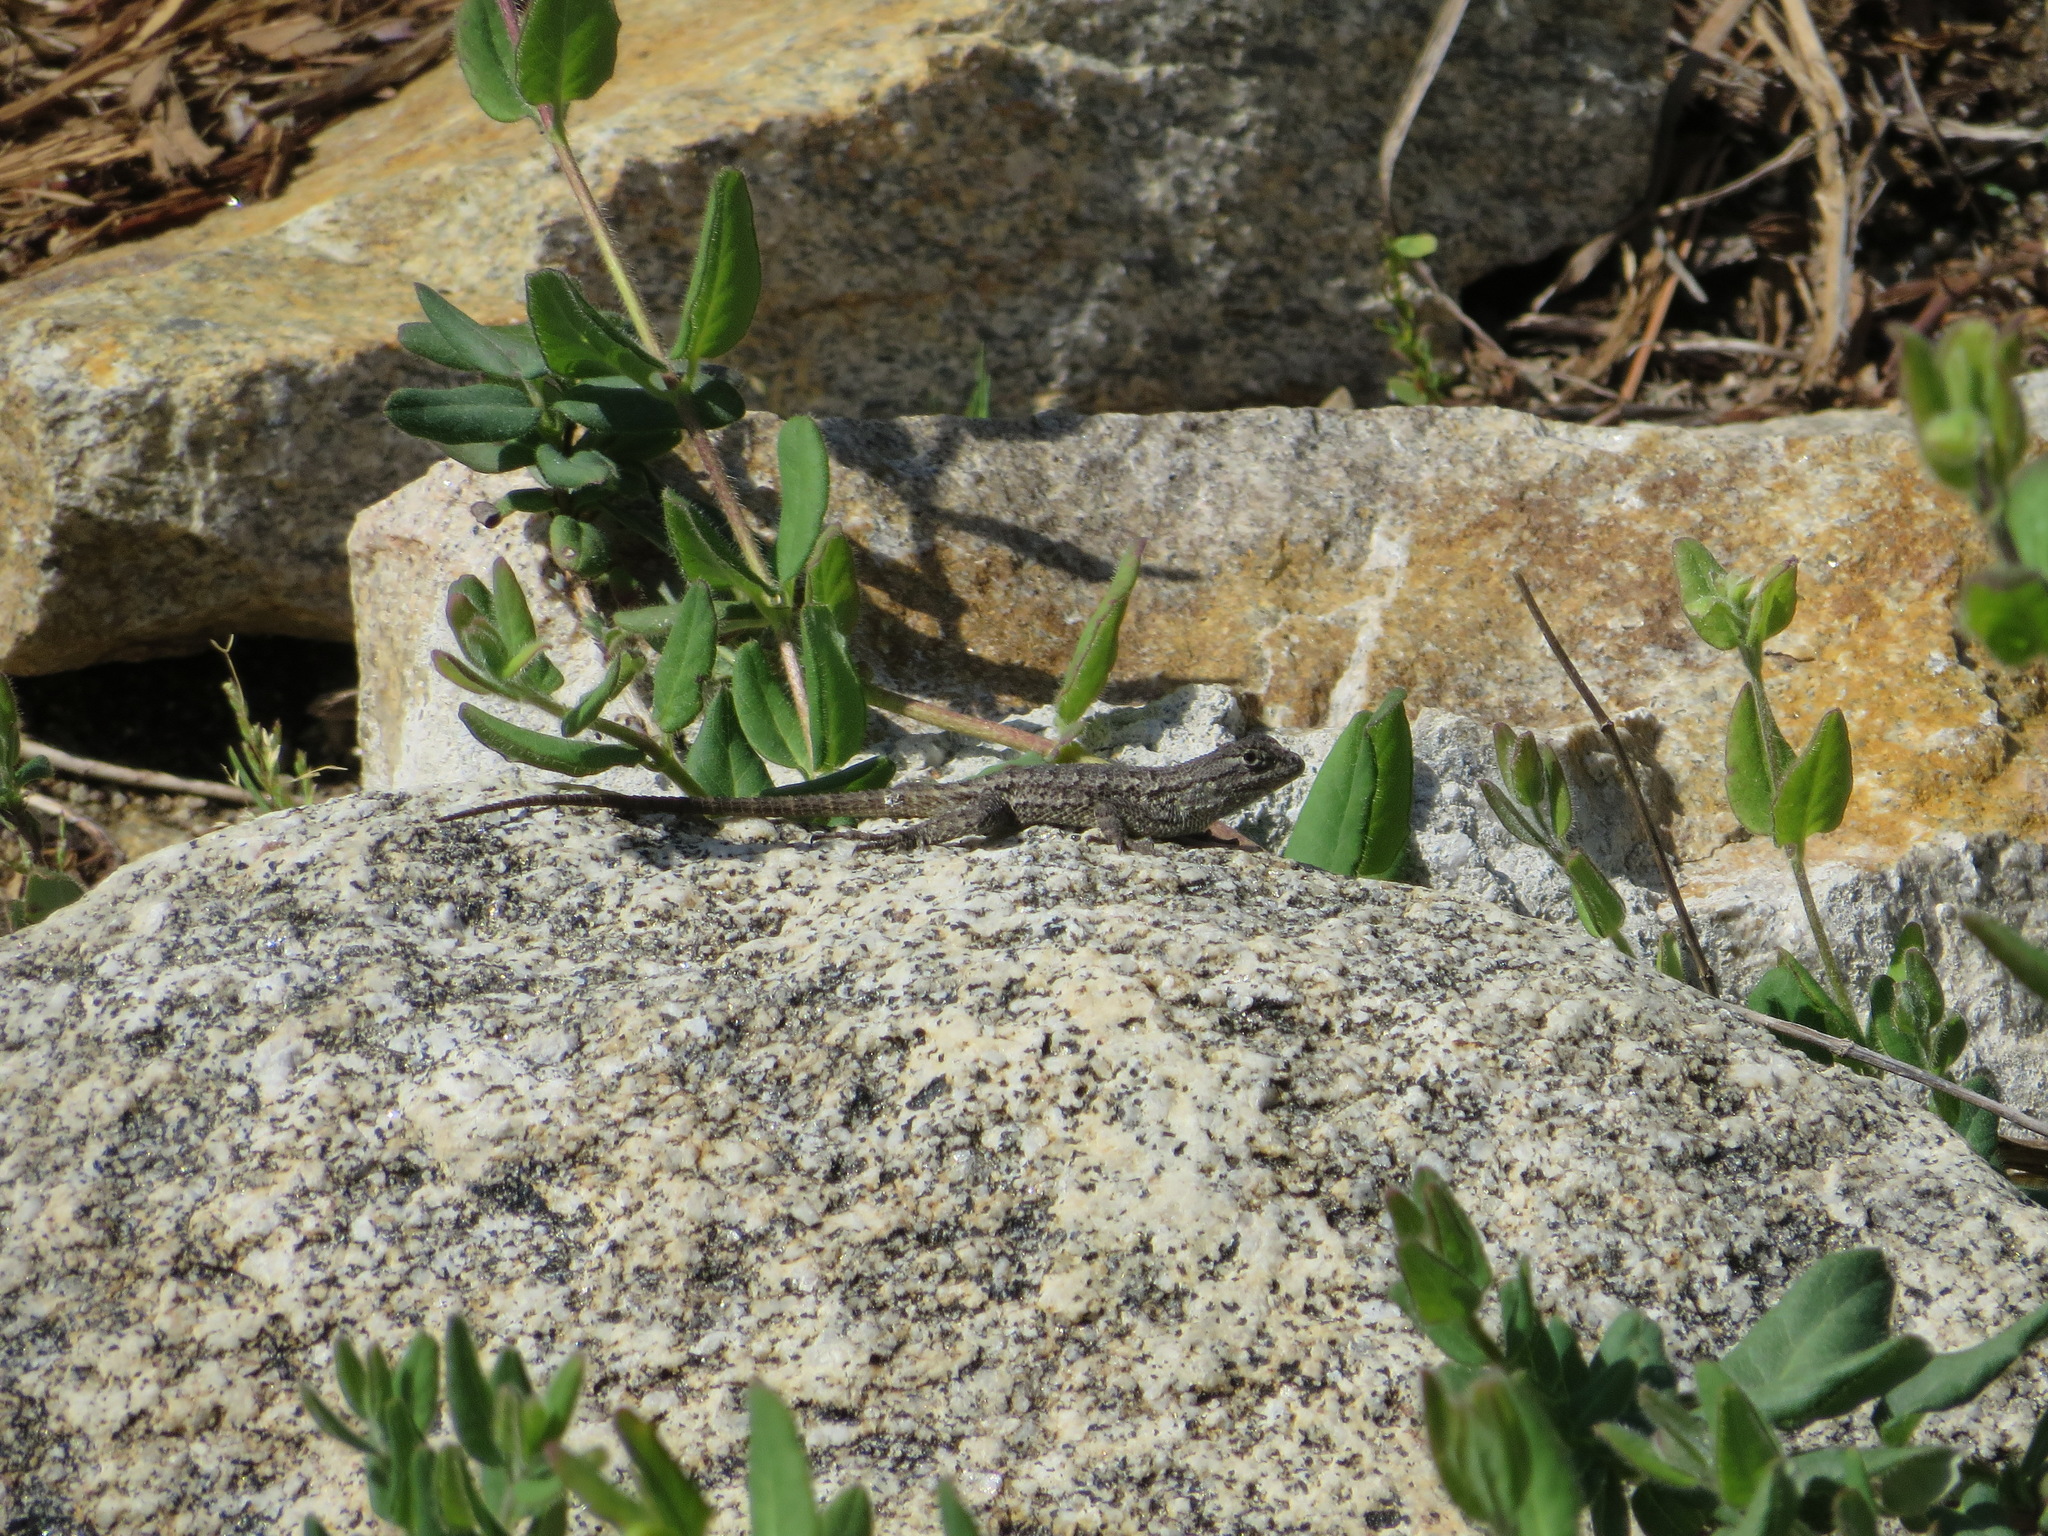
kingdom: Animalia
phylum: Chordata
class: Squamata
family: Phrynosomatidae
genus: Sceloporus
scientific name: Sceloporus occidentalis
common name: Western fence lizard
